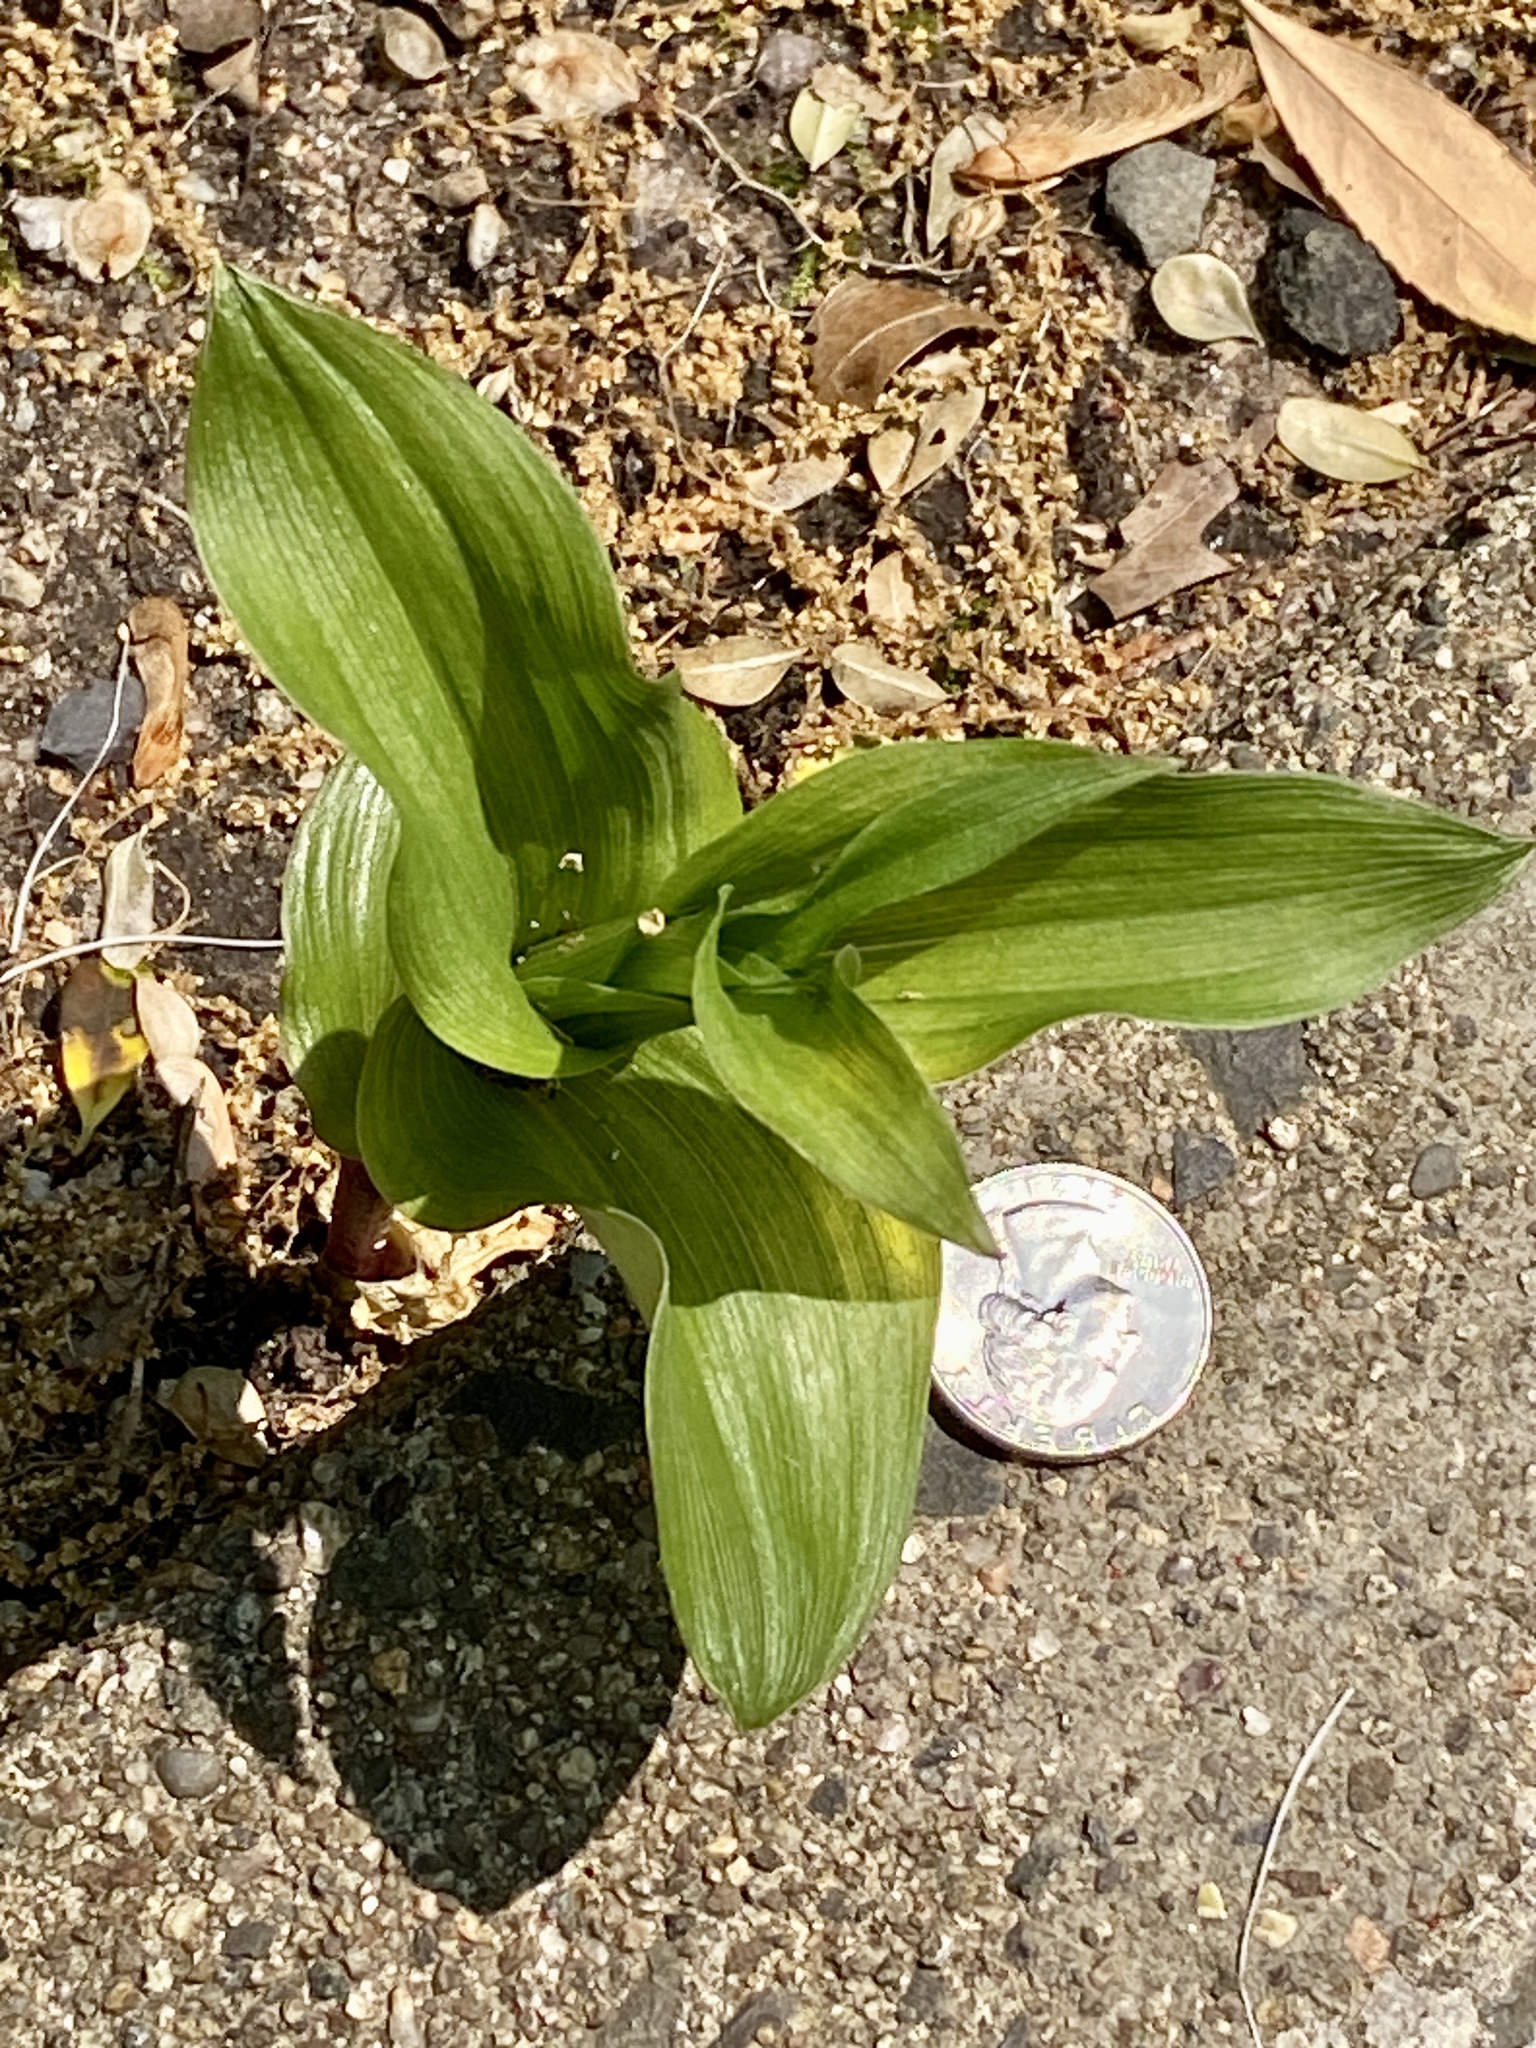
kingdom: Plantae
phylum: Tracheophyta
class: Liliopsida
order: Asparagales
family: Orchidaceae
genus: Epipactis
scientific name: Epipactis helleborine
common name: Broad-leaved helleborine
